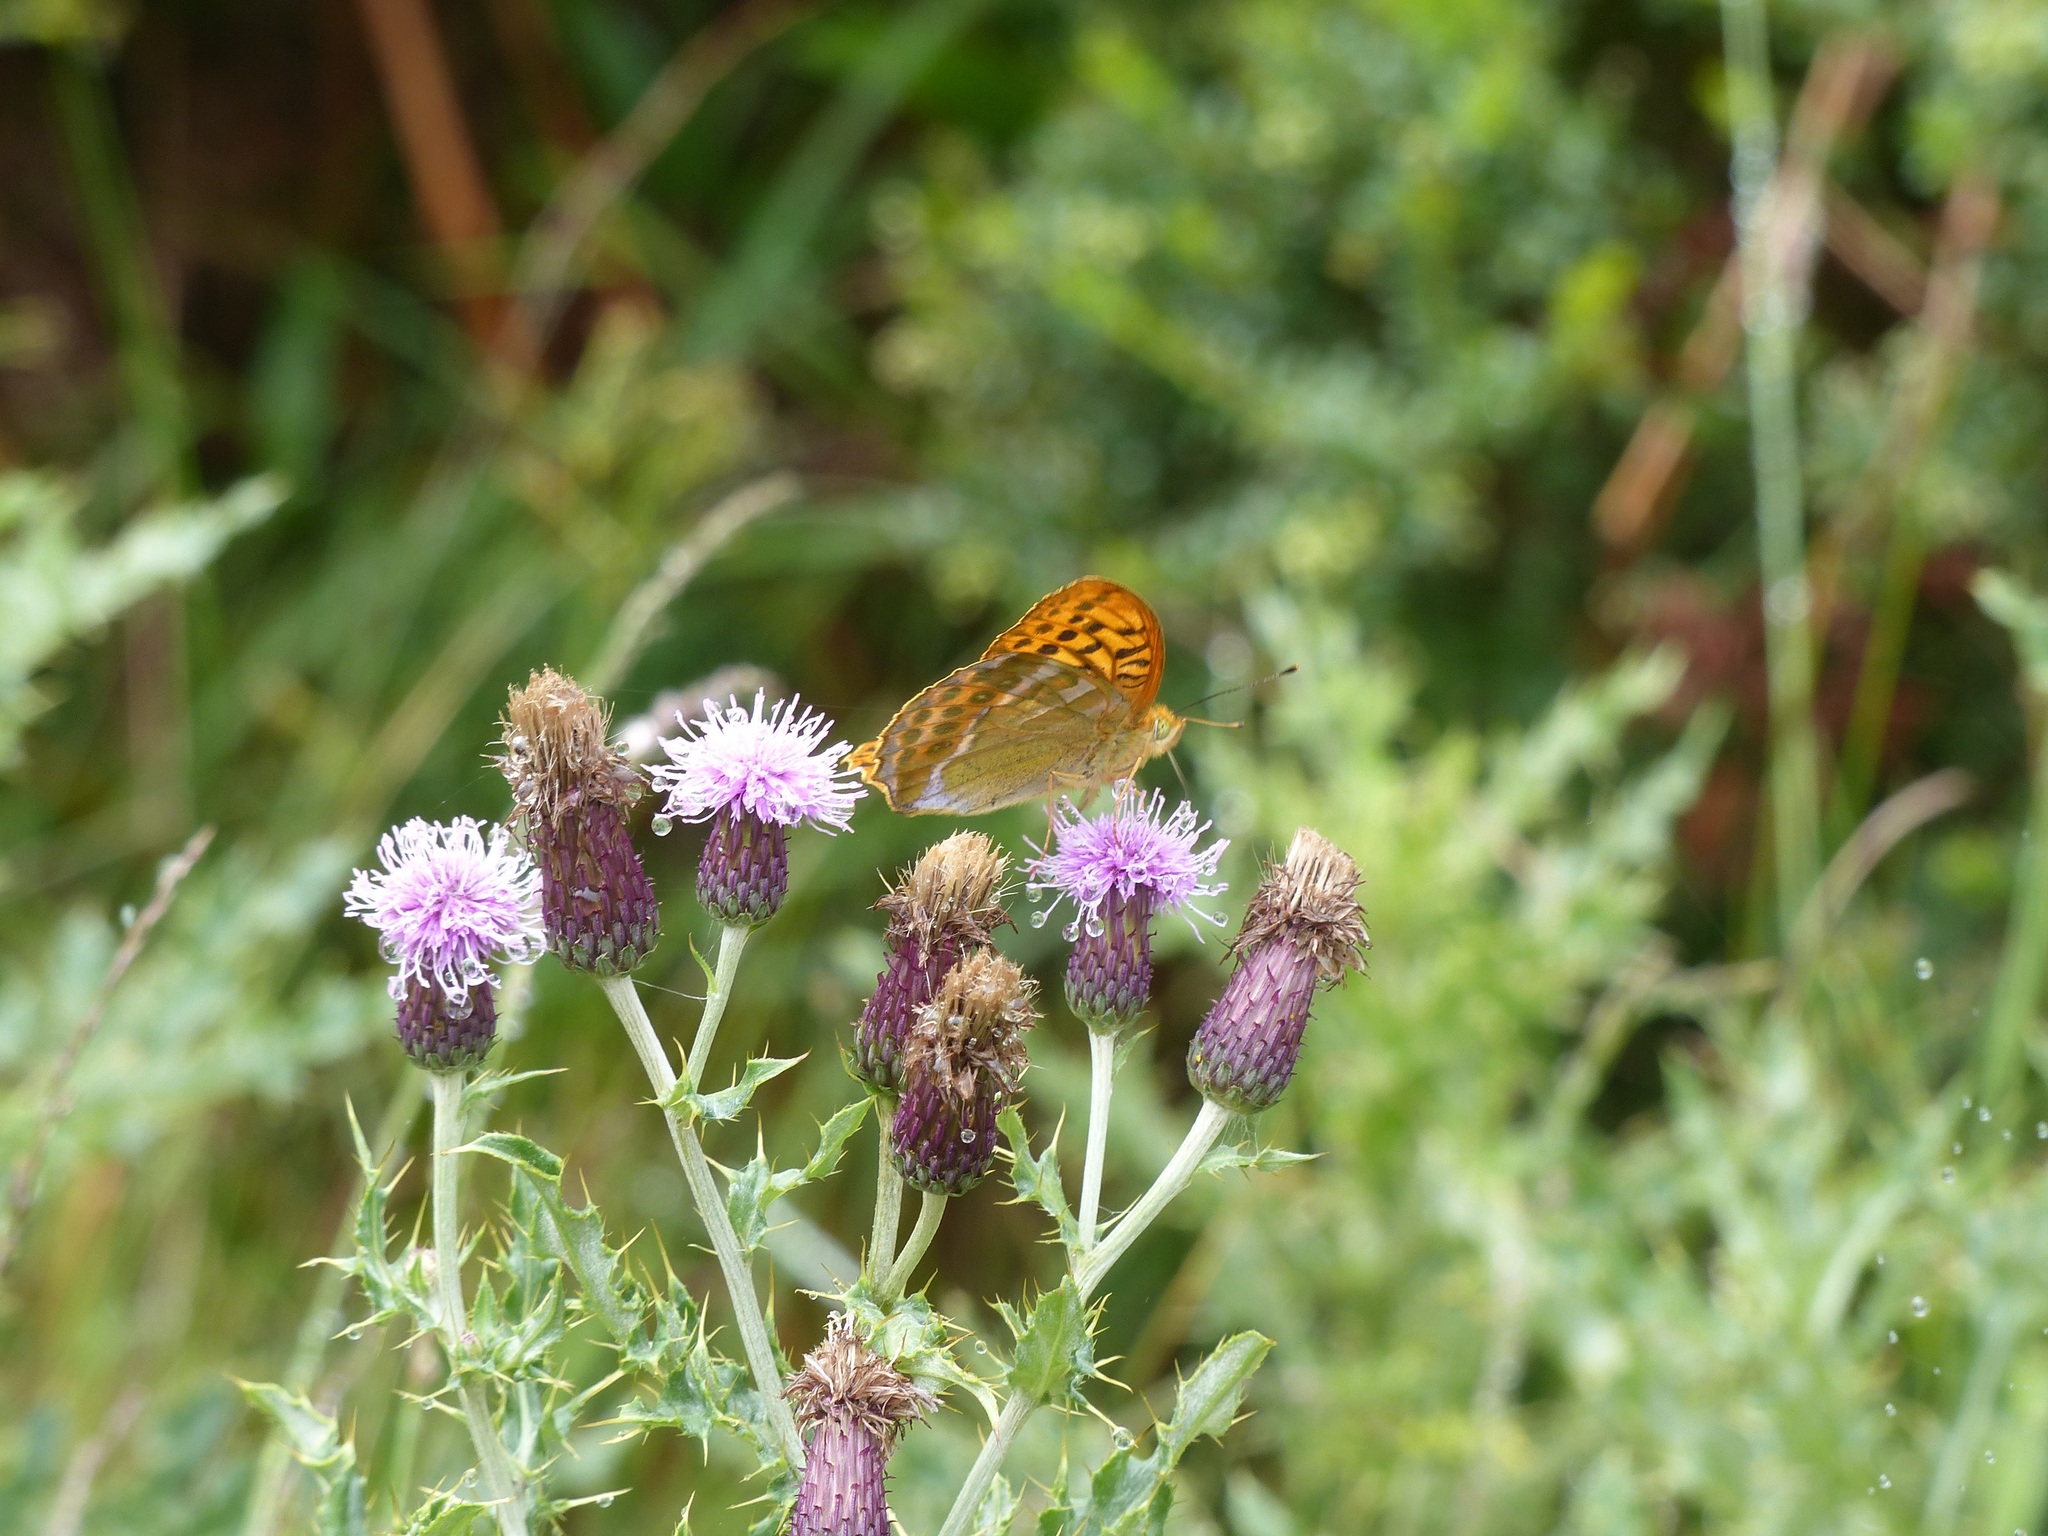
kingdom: Animalia
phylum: Arthropoda
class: Insecta
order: Lepidoptera
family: Nymphalidae
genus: Argynnis
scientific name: Argynnis paphia
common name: Silver-washed fritillary
